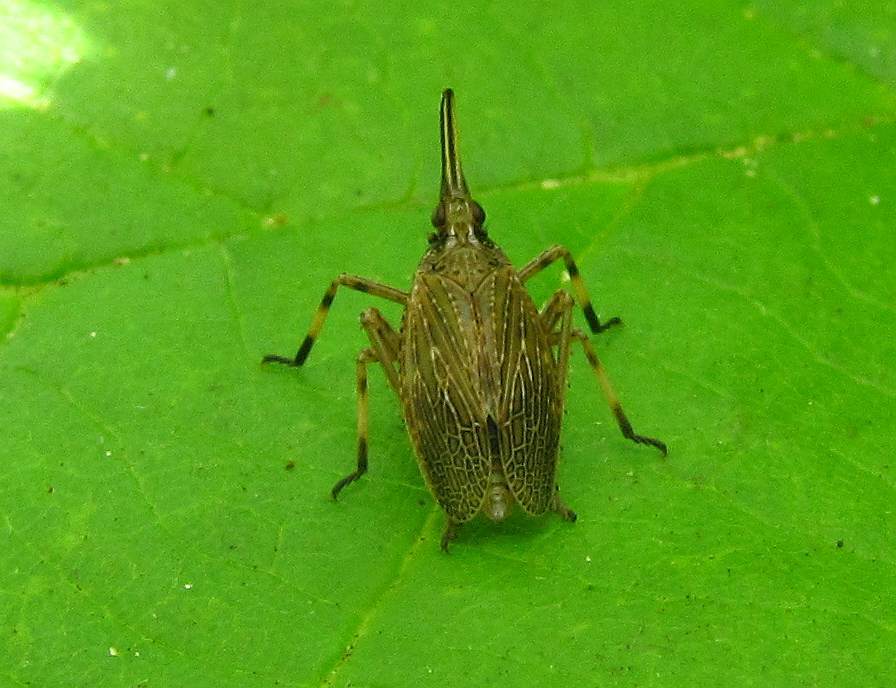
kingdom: Animalia
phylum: Arthropoda
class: Insecta
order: Hemiptera
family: Dictyopharidae
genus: Scolops
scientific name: Scolops sulcipes
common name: Partridge planthopper
